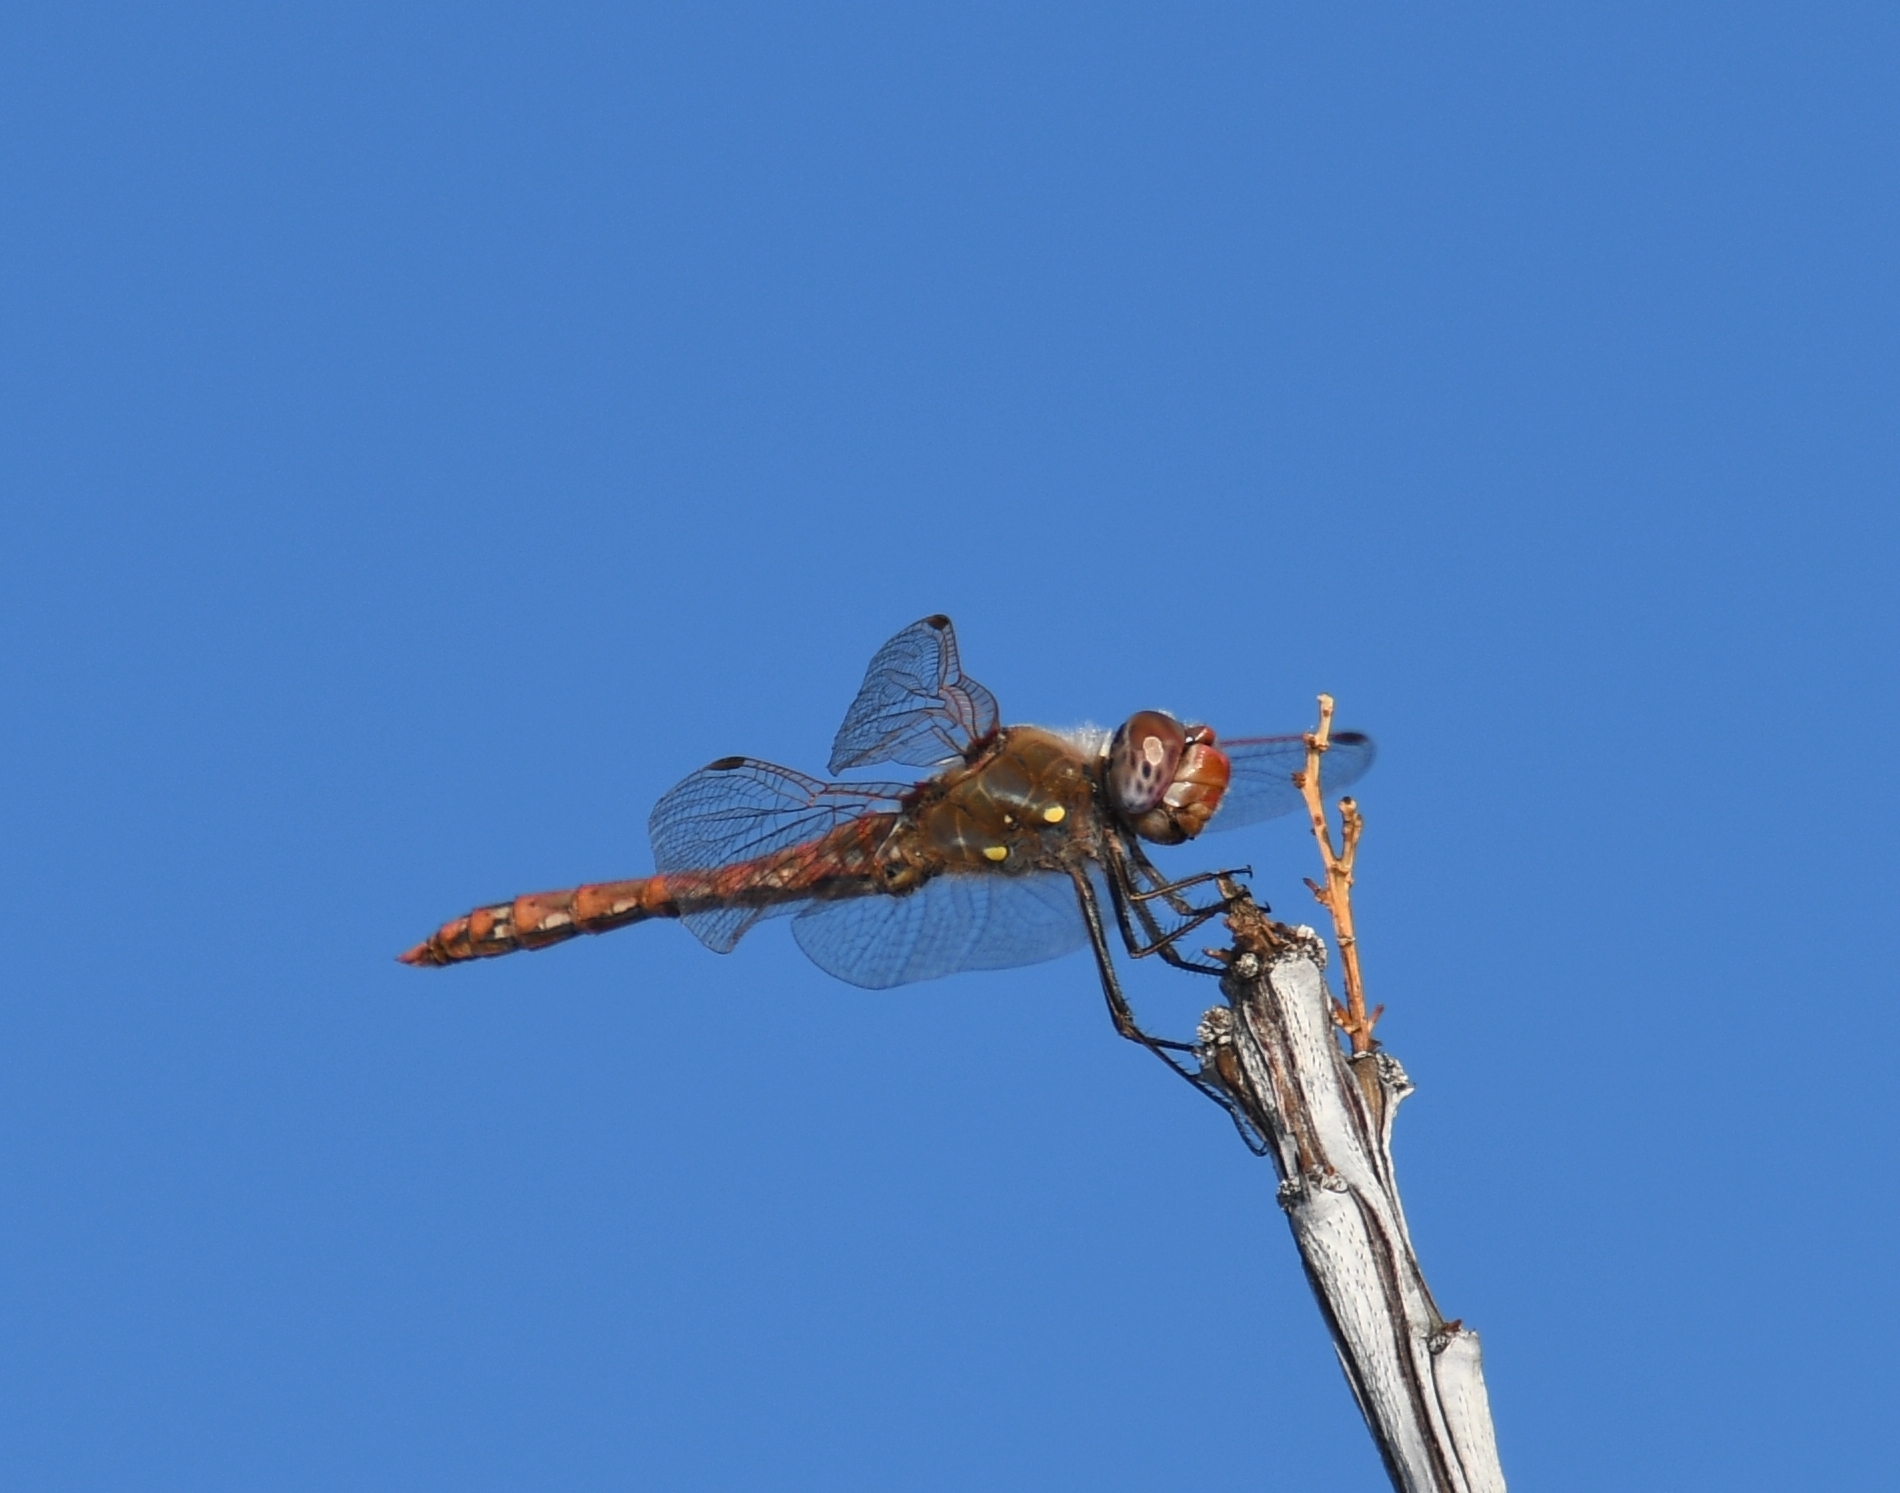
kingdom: Animalia
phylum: Arthropoda
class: Insecta
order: Odonata
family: Libellulidae
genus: Sympetrum
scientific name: Sympetrum corruptum
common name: Variegated meadowhawk
